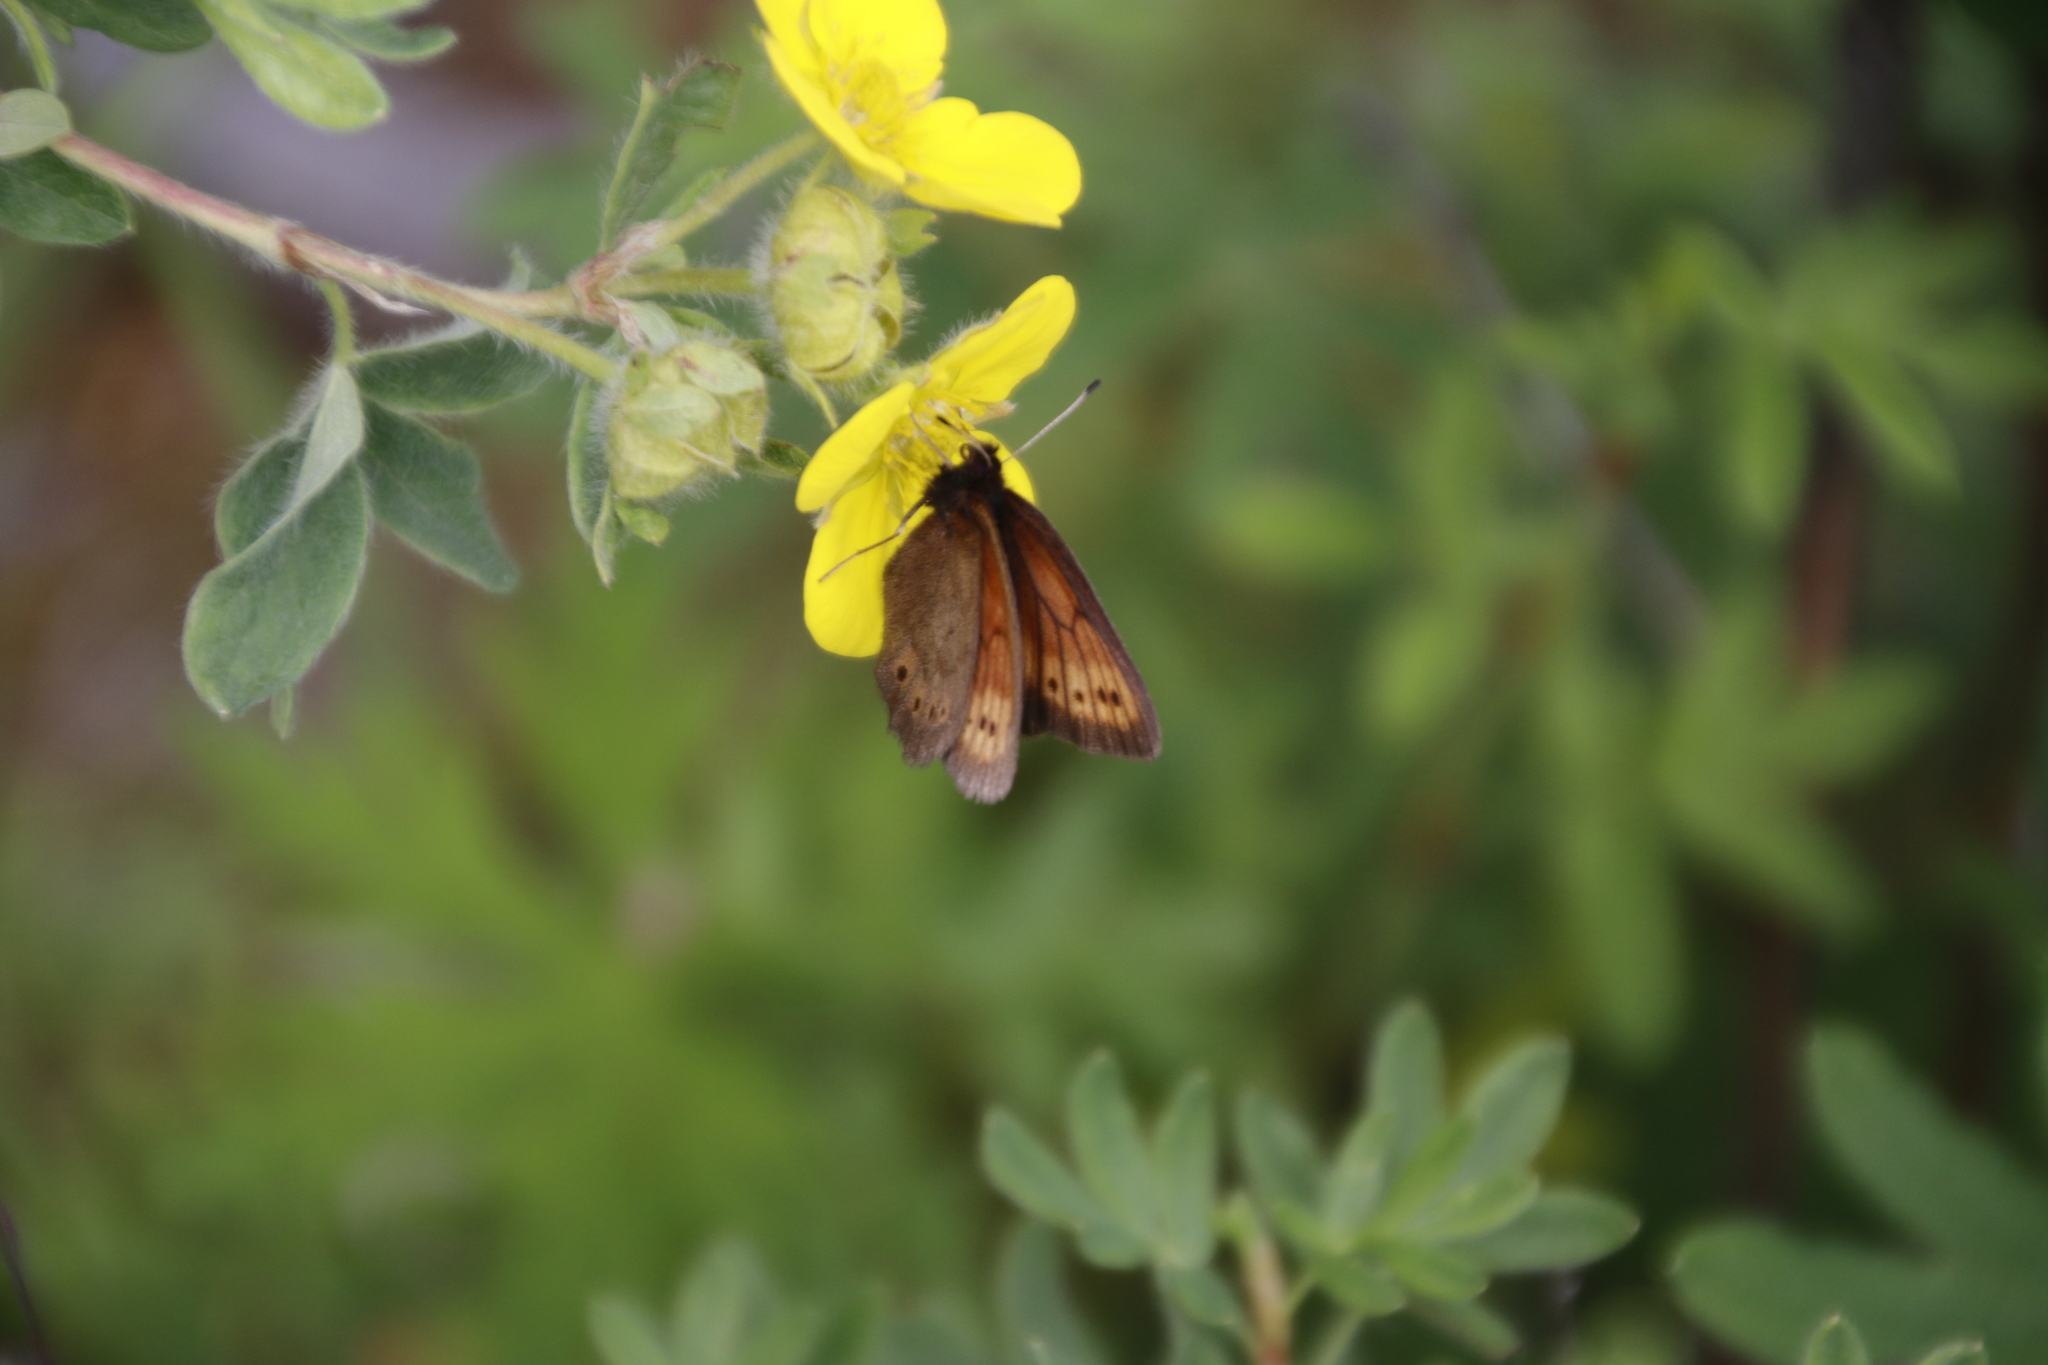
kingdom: Animalia
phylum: Arthropoda
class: Insecta
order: Lepidoptera
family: Nymphalidae
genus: Erebia
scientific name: Erebia kefersteinii
